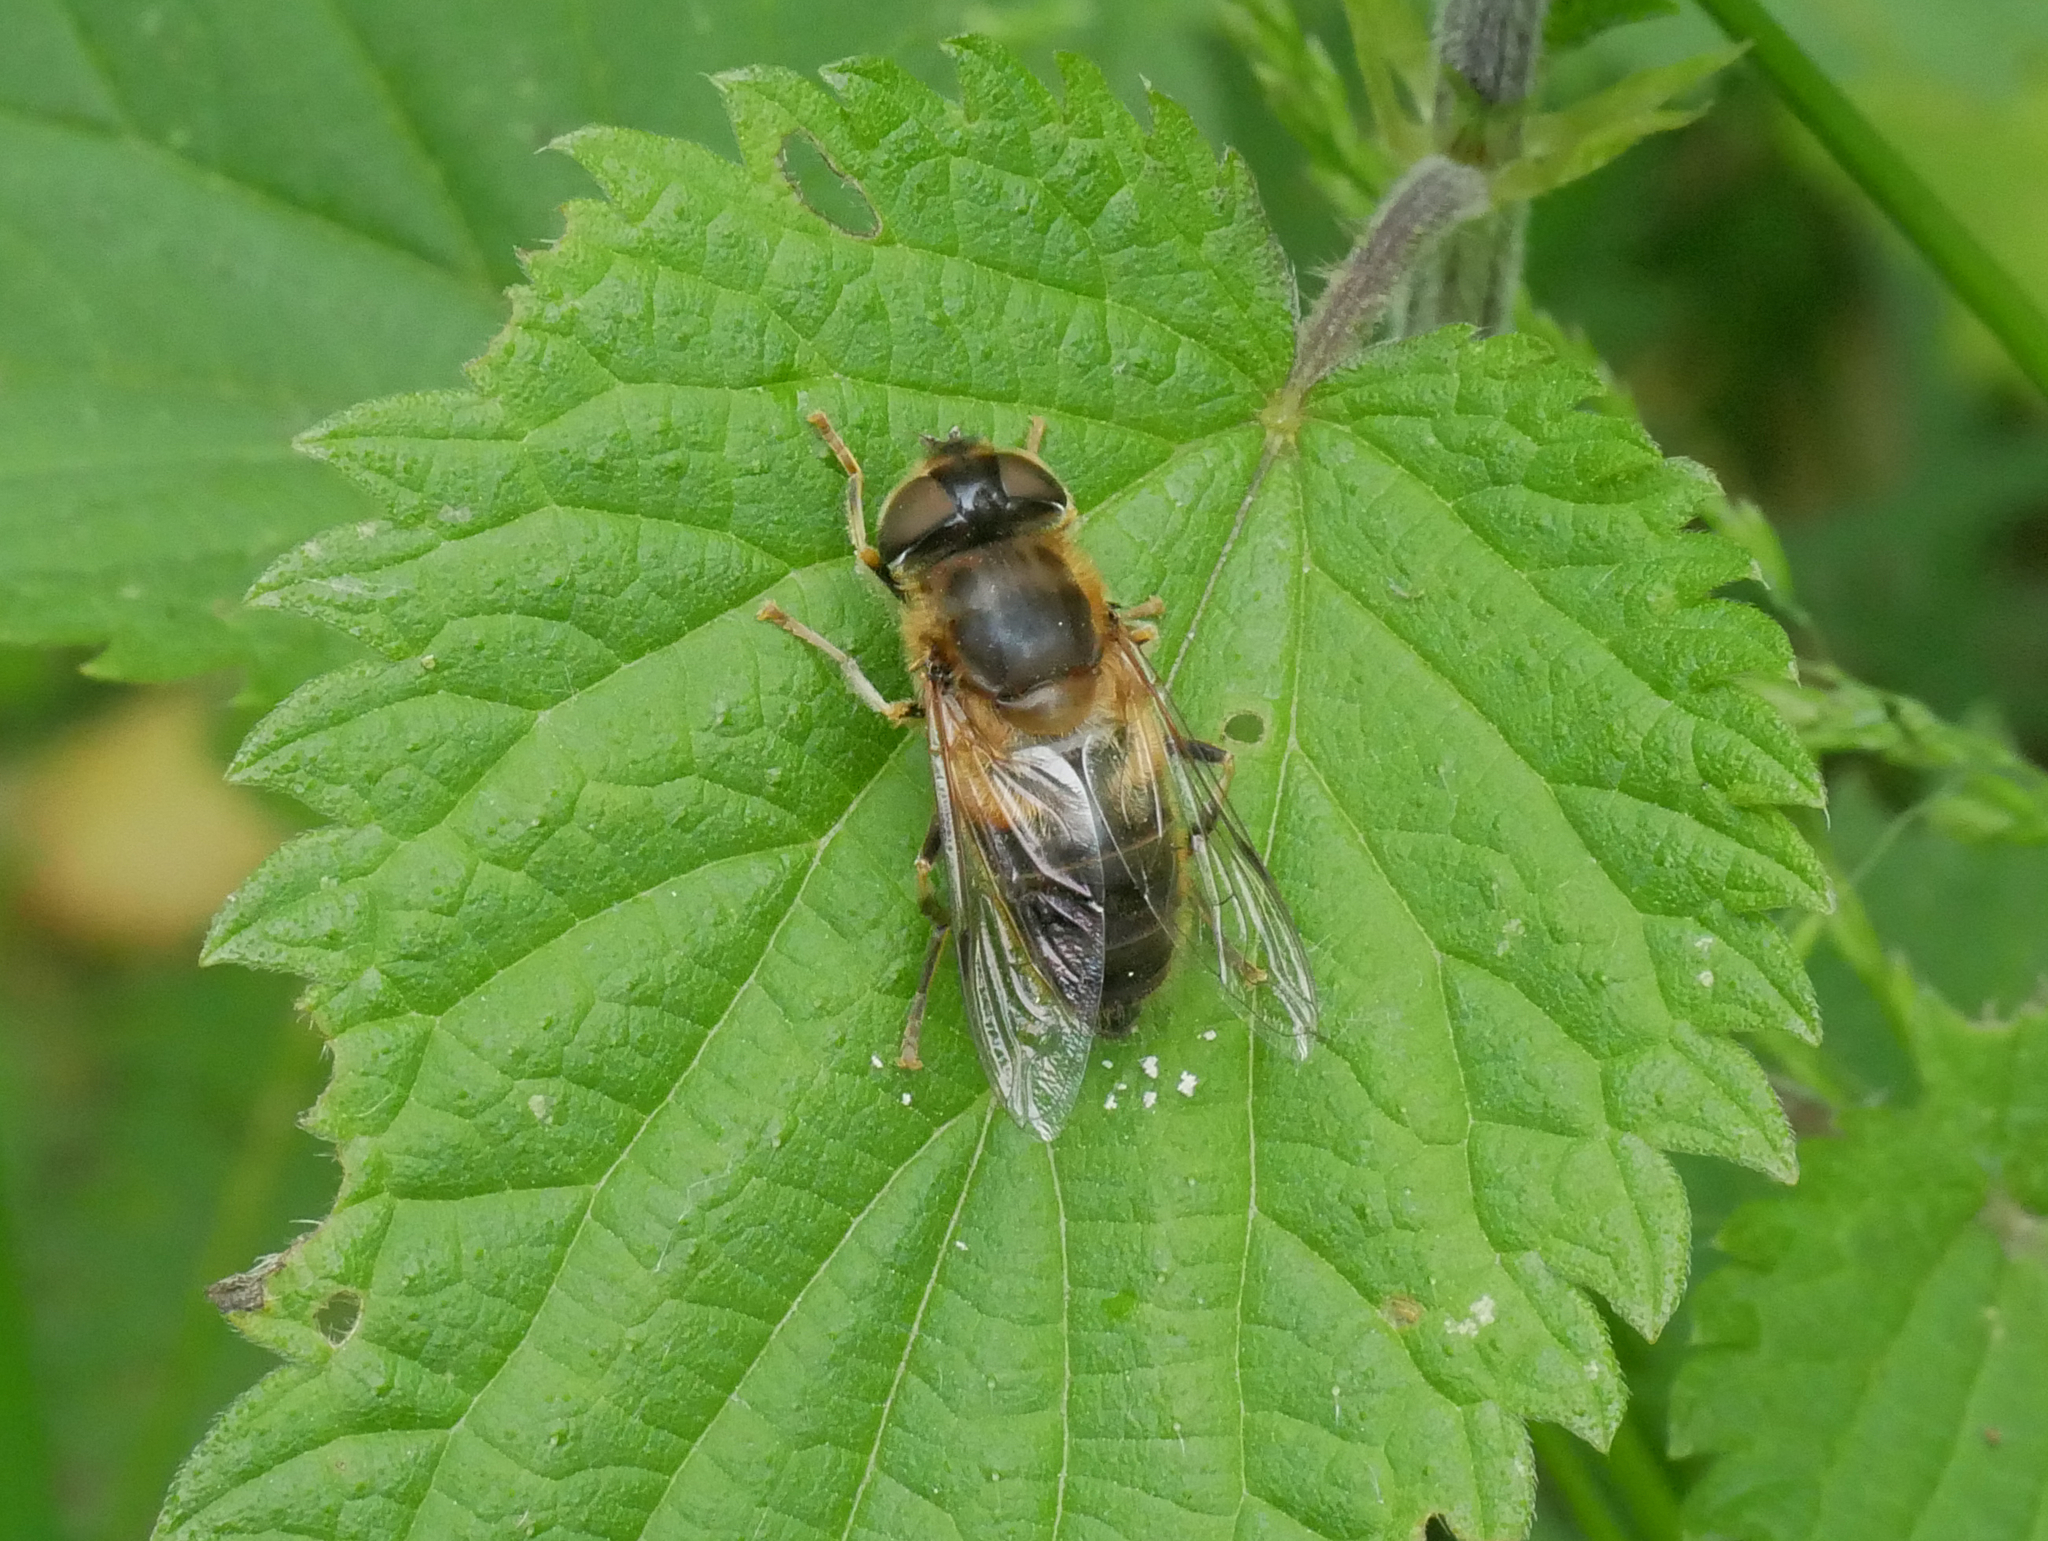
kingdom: Animalia
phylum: Arthropoda
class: Insecta
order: Diptera
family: Syrphidae
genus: Eristalis
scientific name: Eristalis pertinax
